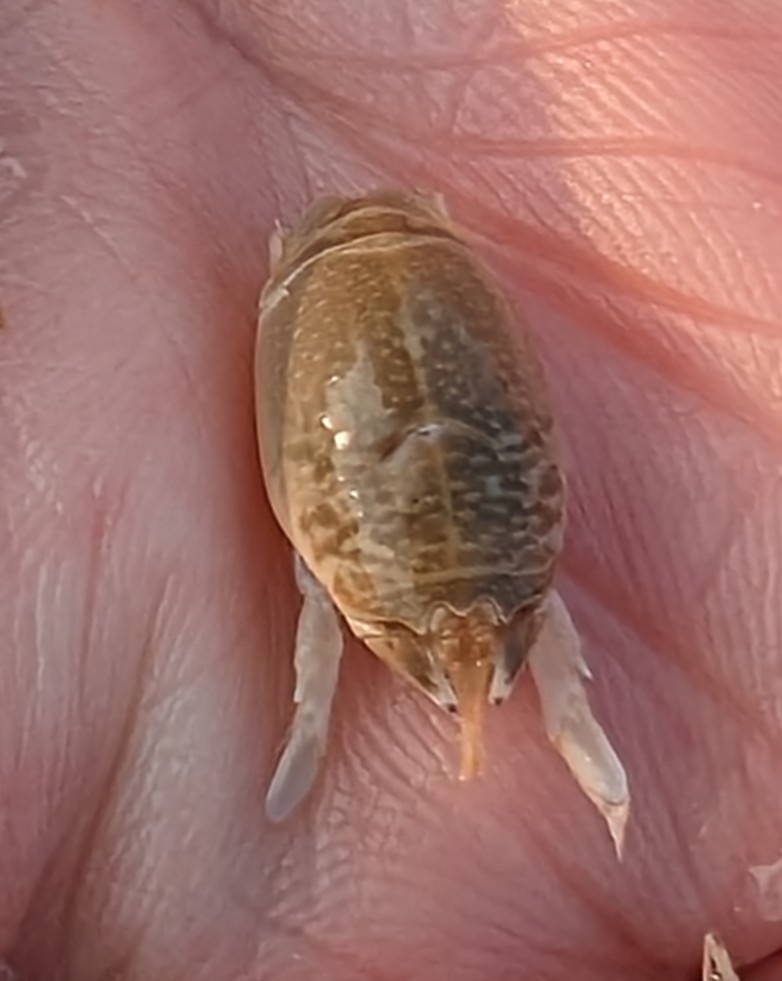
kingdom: Animalia
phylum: Arthropoda
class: Malacostraca
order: Decapoda
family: Hippidae
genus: Emerita
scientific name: Emerita talpoida
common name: Atlantic sand crab
